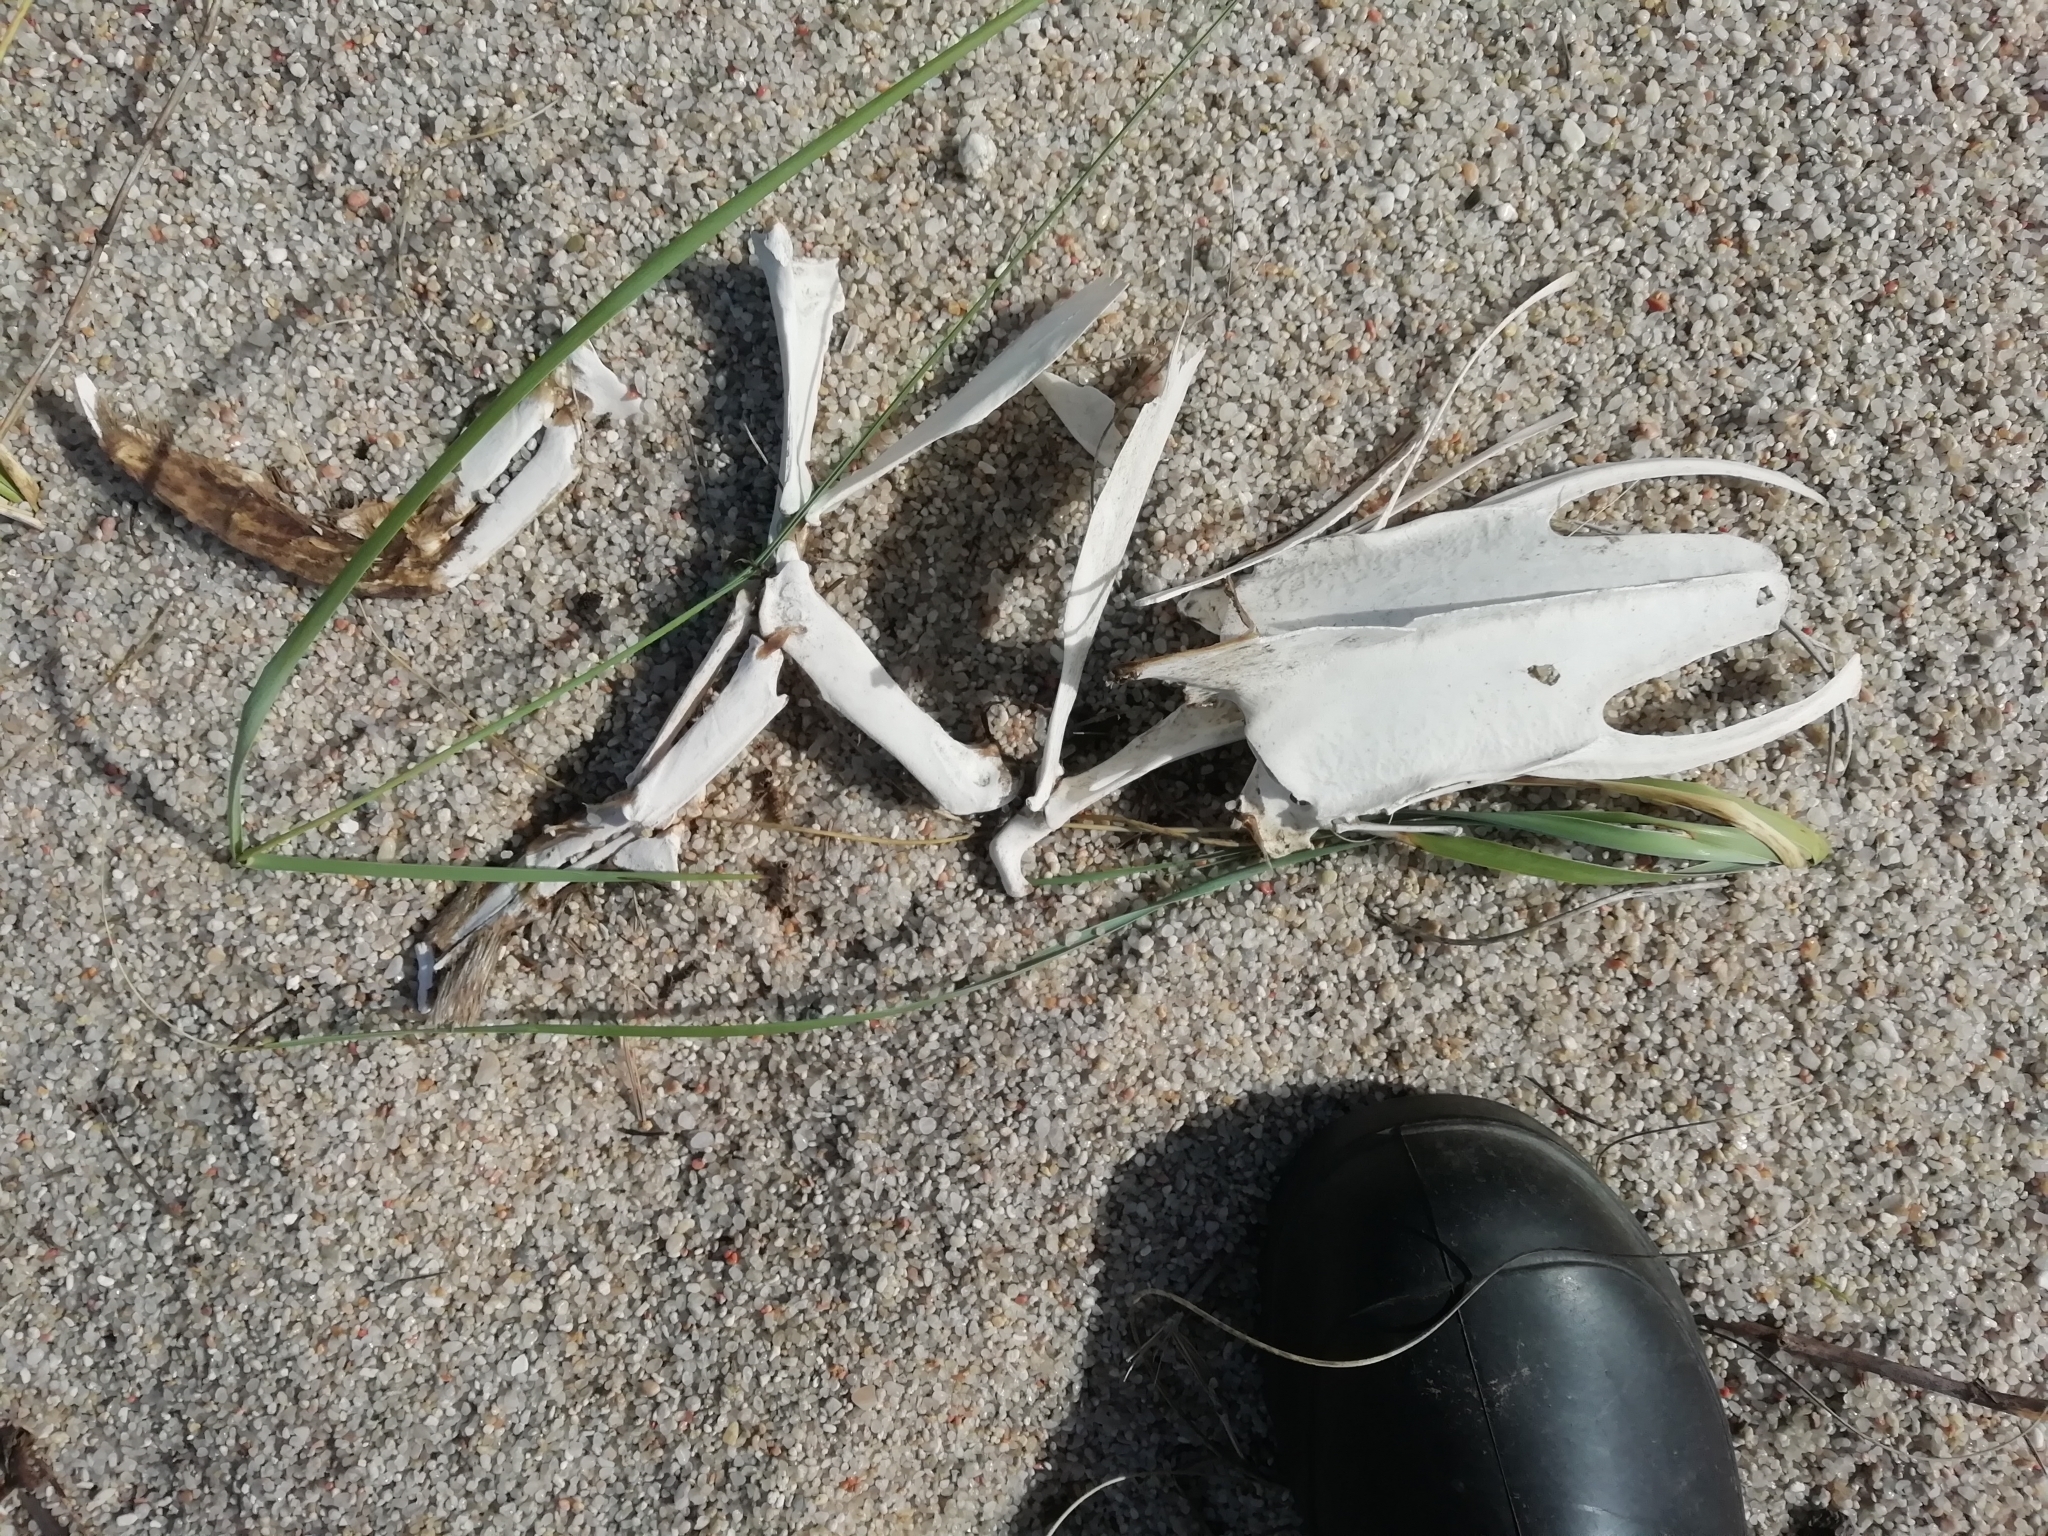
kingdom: Animalia
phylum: Chordata
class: Aves
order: Sphenisciformes
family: Spheniscidae
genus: Spheniscus
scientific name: Spheniscus magellanicus
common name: Magellanic penguin
